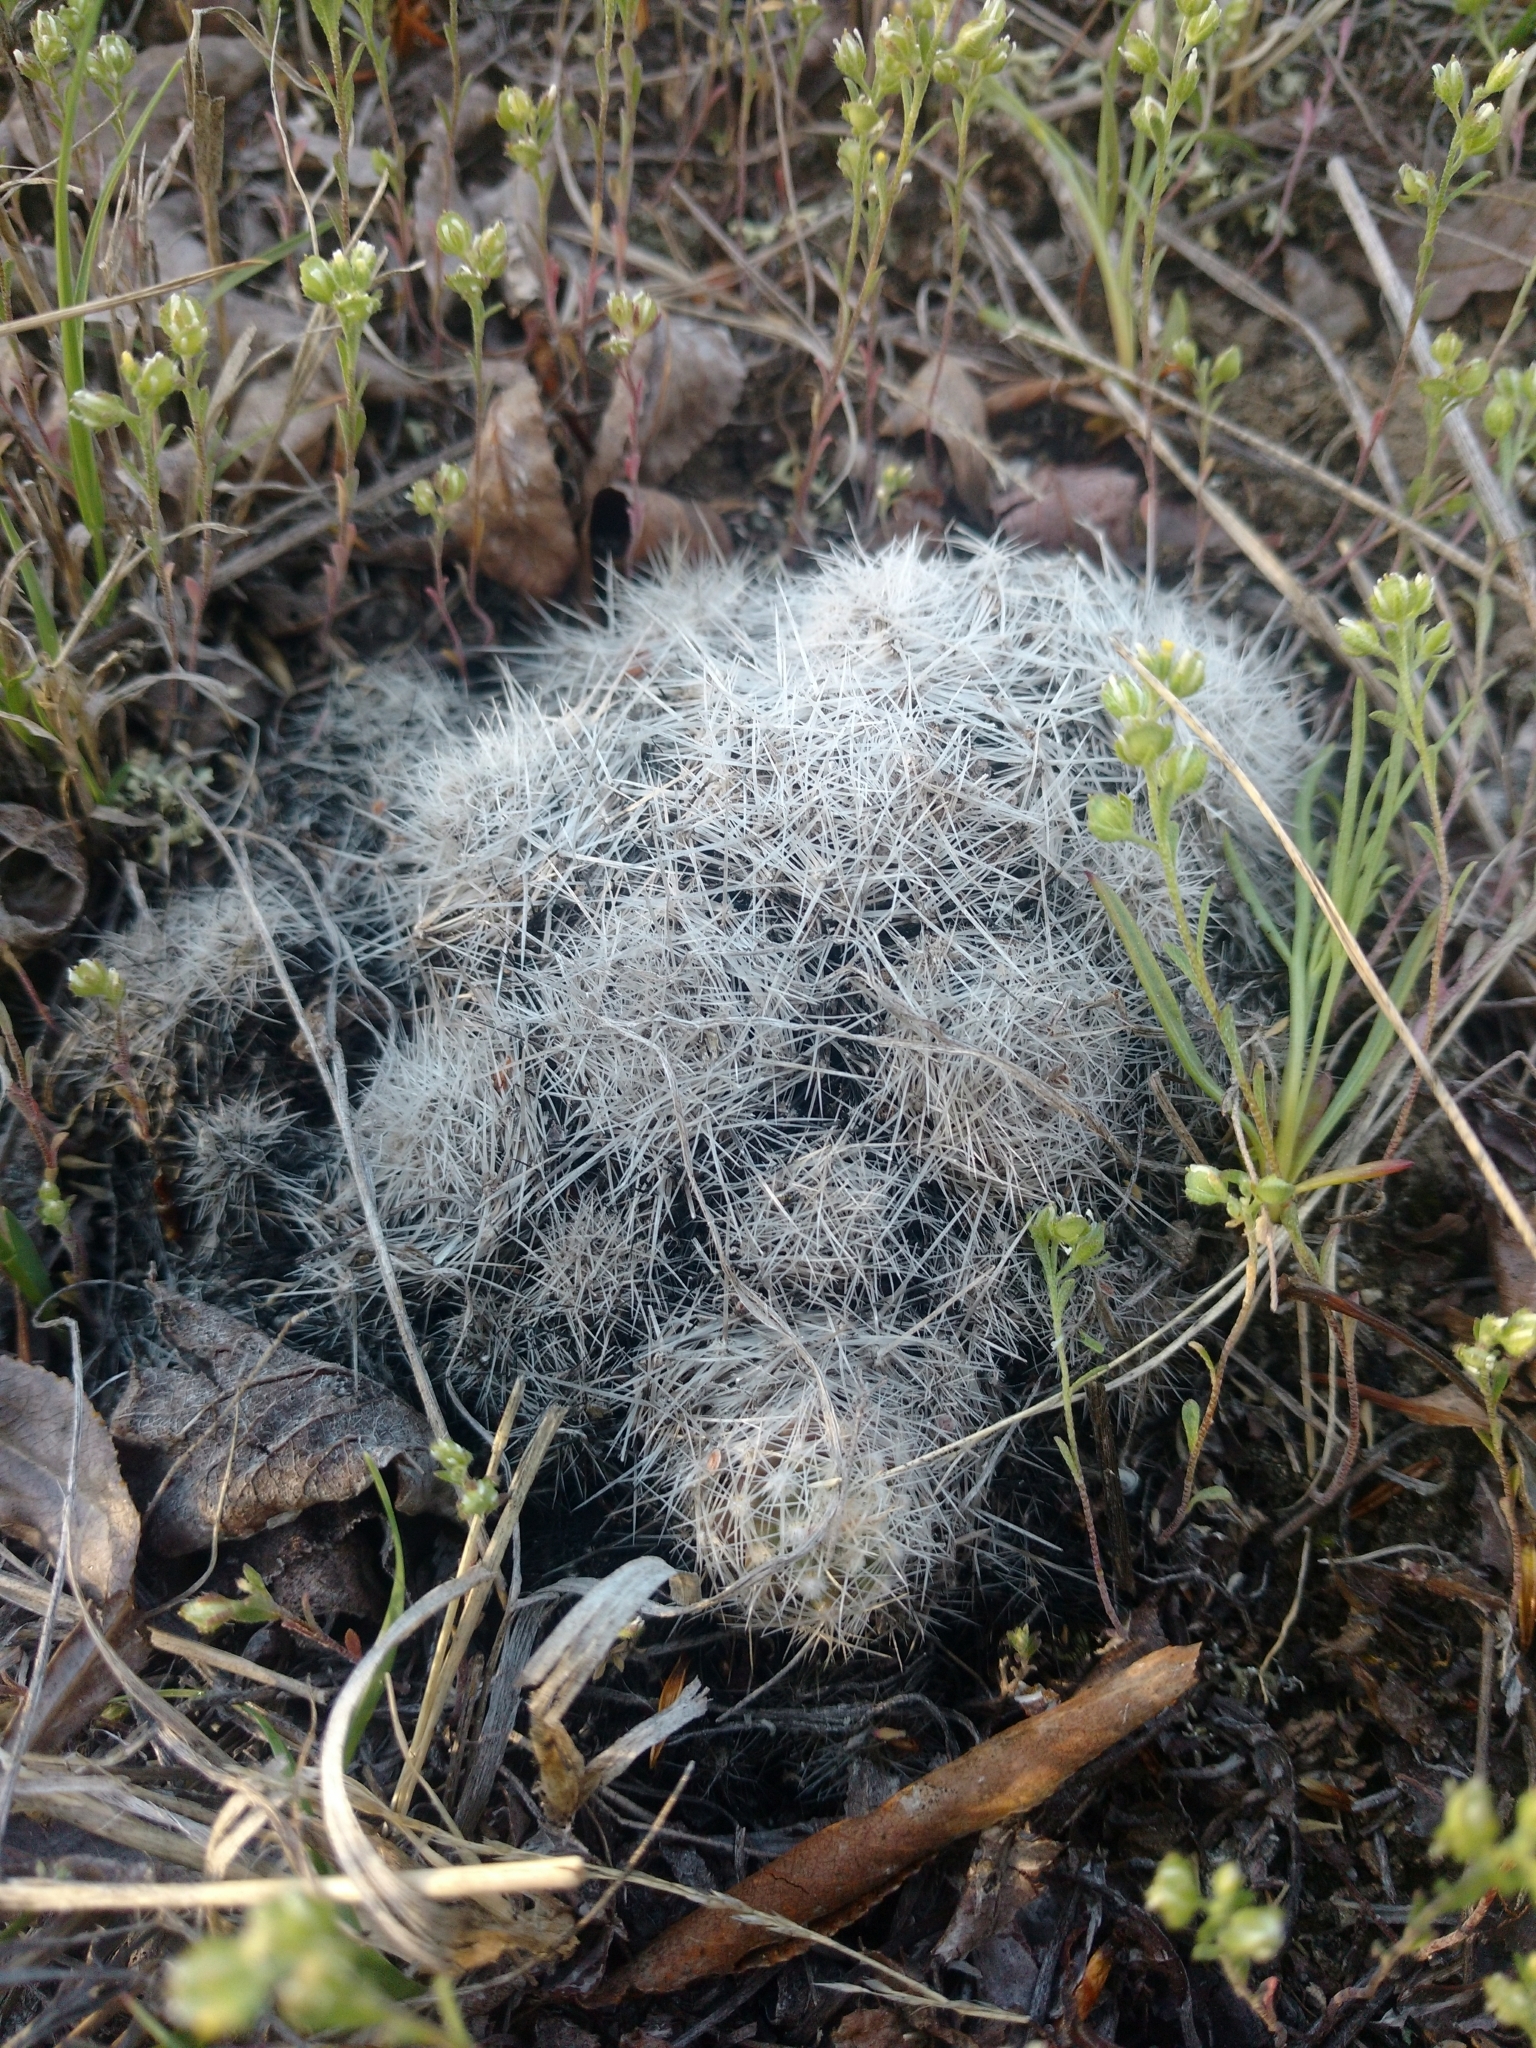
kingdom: Plantae
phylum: Tracheophyta
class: Magnoliopsida
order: Caryophyllales
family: Cactaceae
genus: Pelecyphora
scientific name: Pelecyphora vivipara
